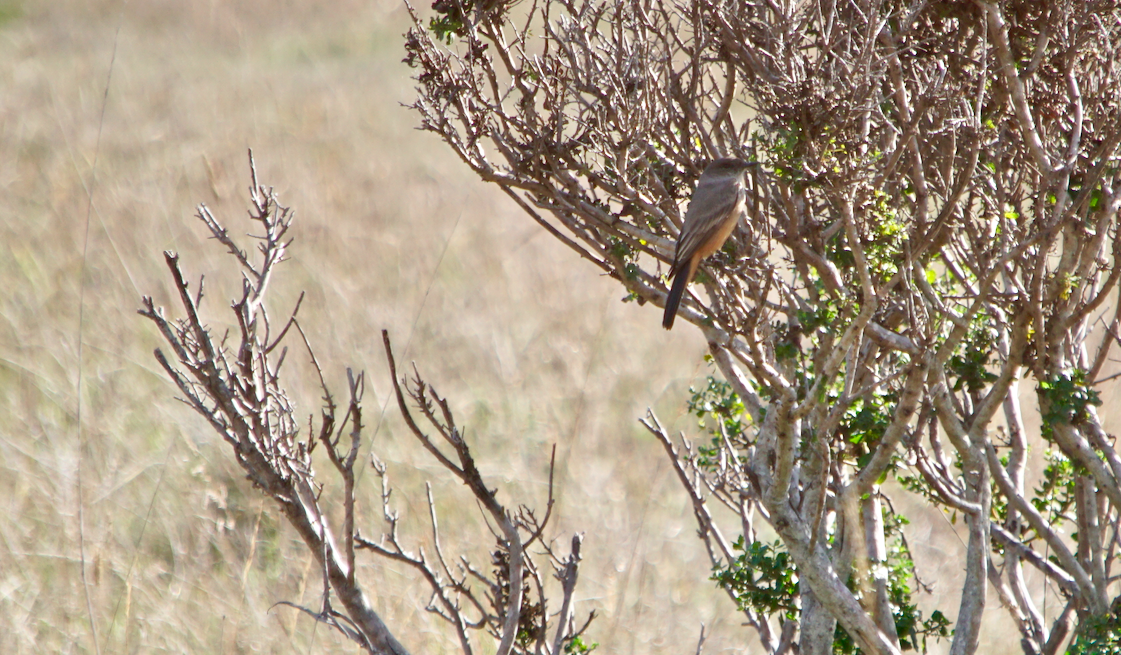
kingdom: Animalia
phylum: Chordata
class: Aves
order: Passeriformes
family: Tyrannidae
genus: Sayornis
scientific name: Sayornis saya
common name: Say's phoebe
